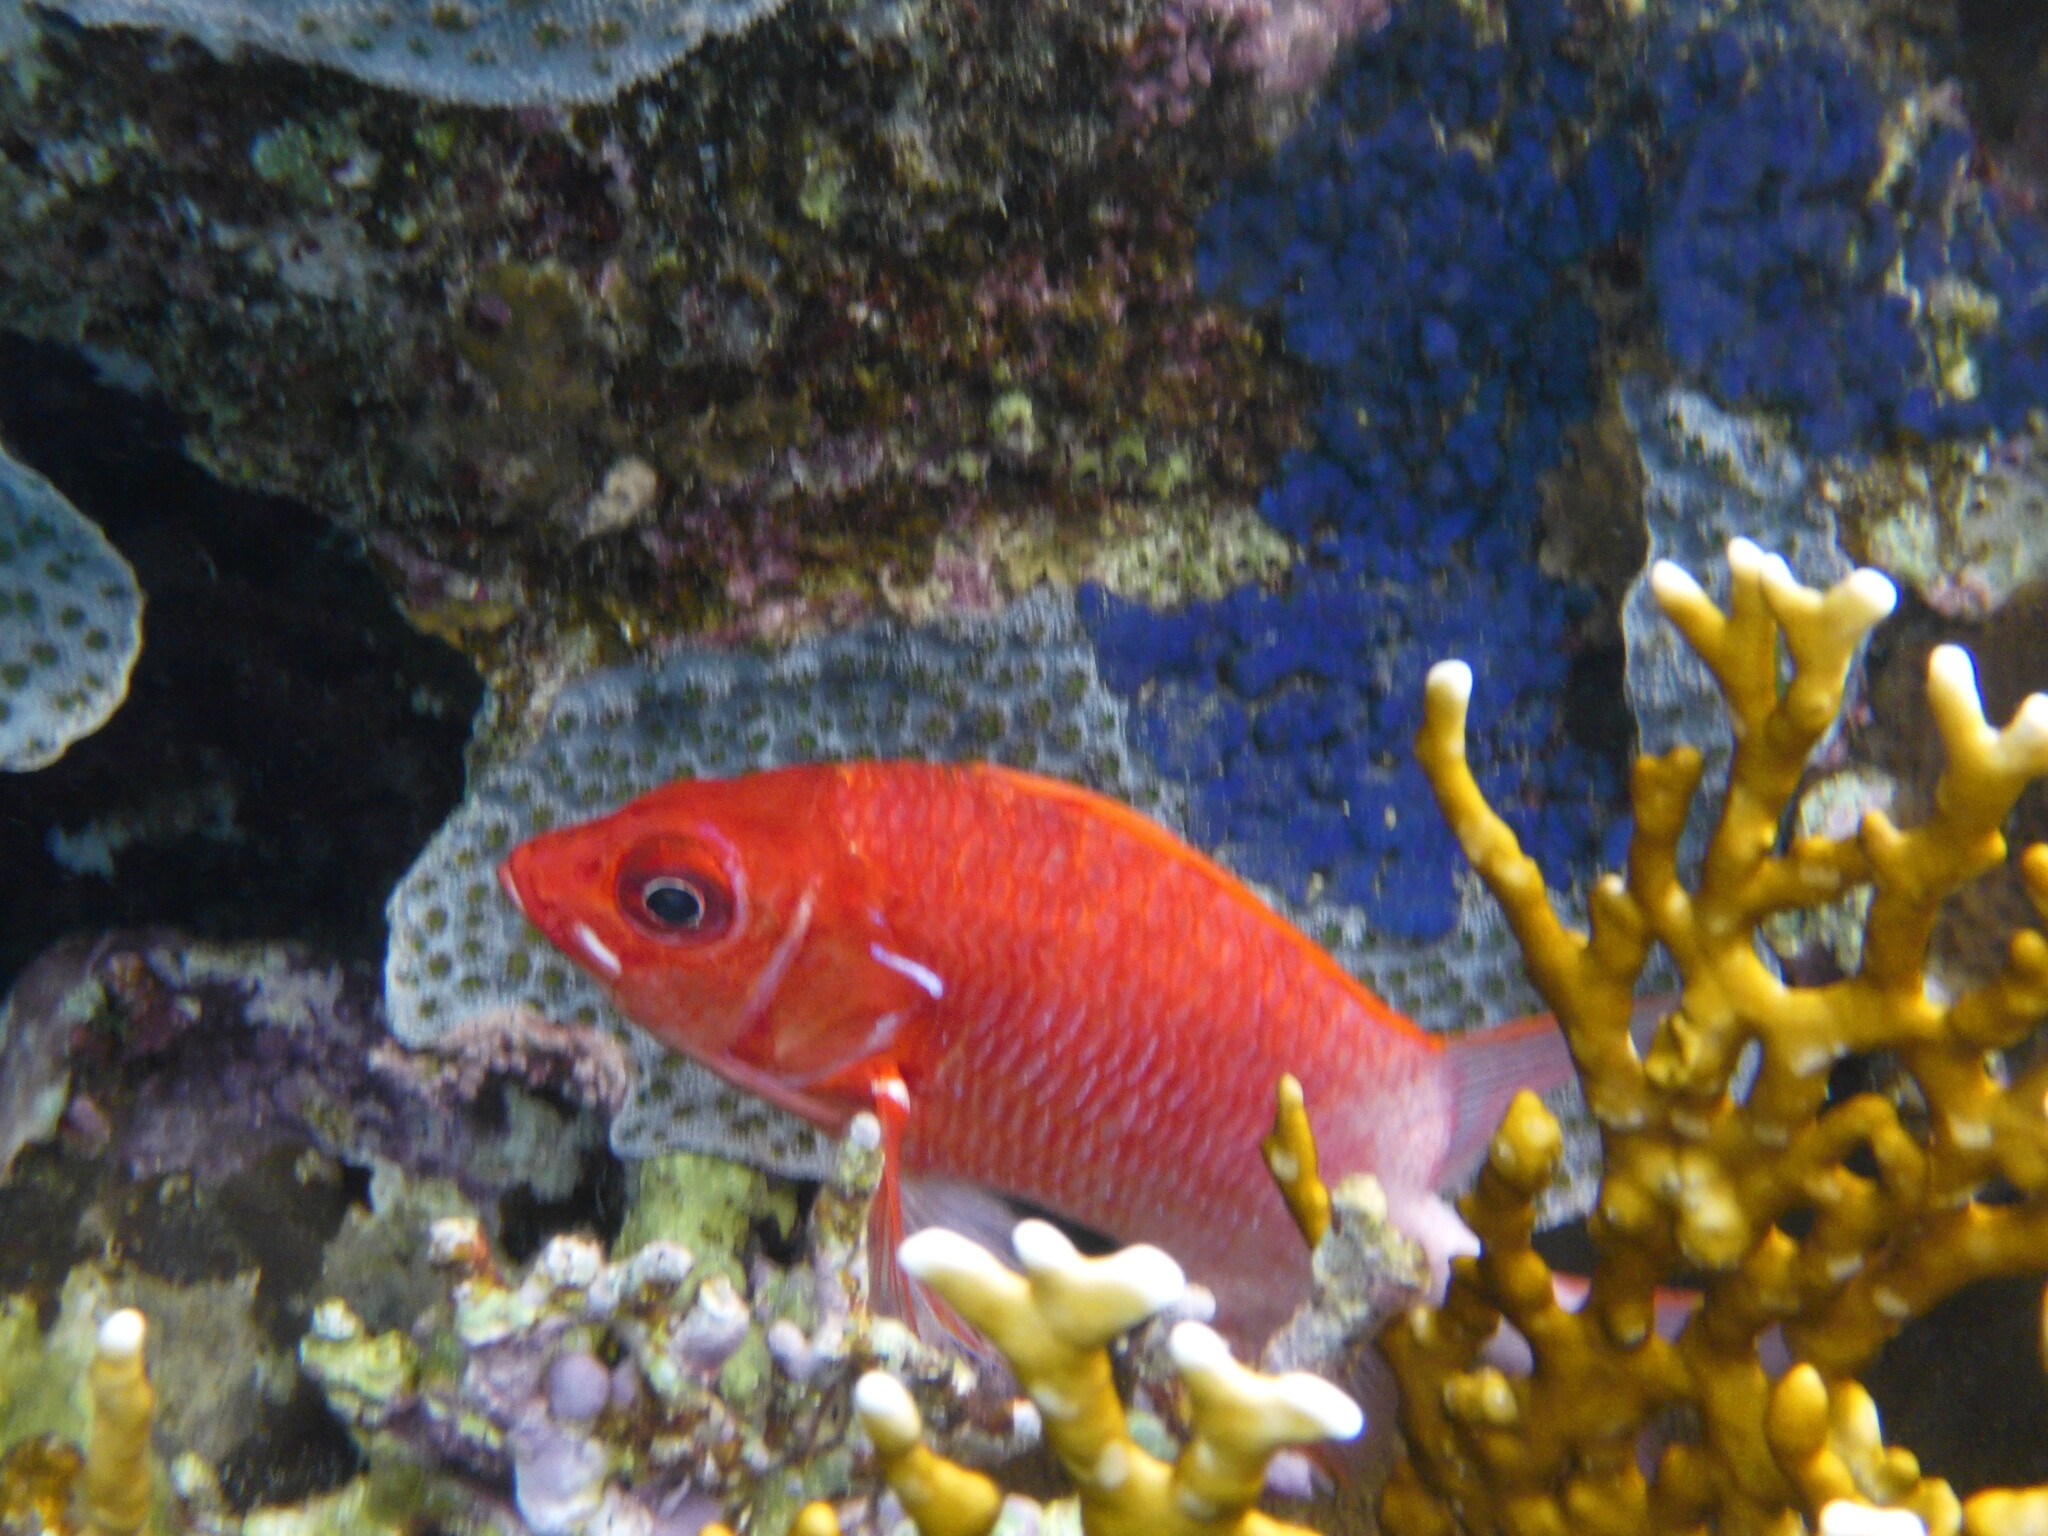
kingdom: Animalia
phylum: Chordata
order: Beryciformes
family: Holocentridae
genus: Sargocentron
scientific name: Sargocentron caudimaculatum
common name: Fanfin soldier
